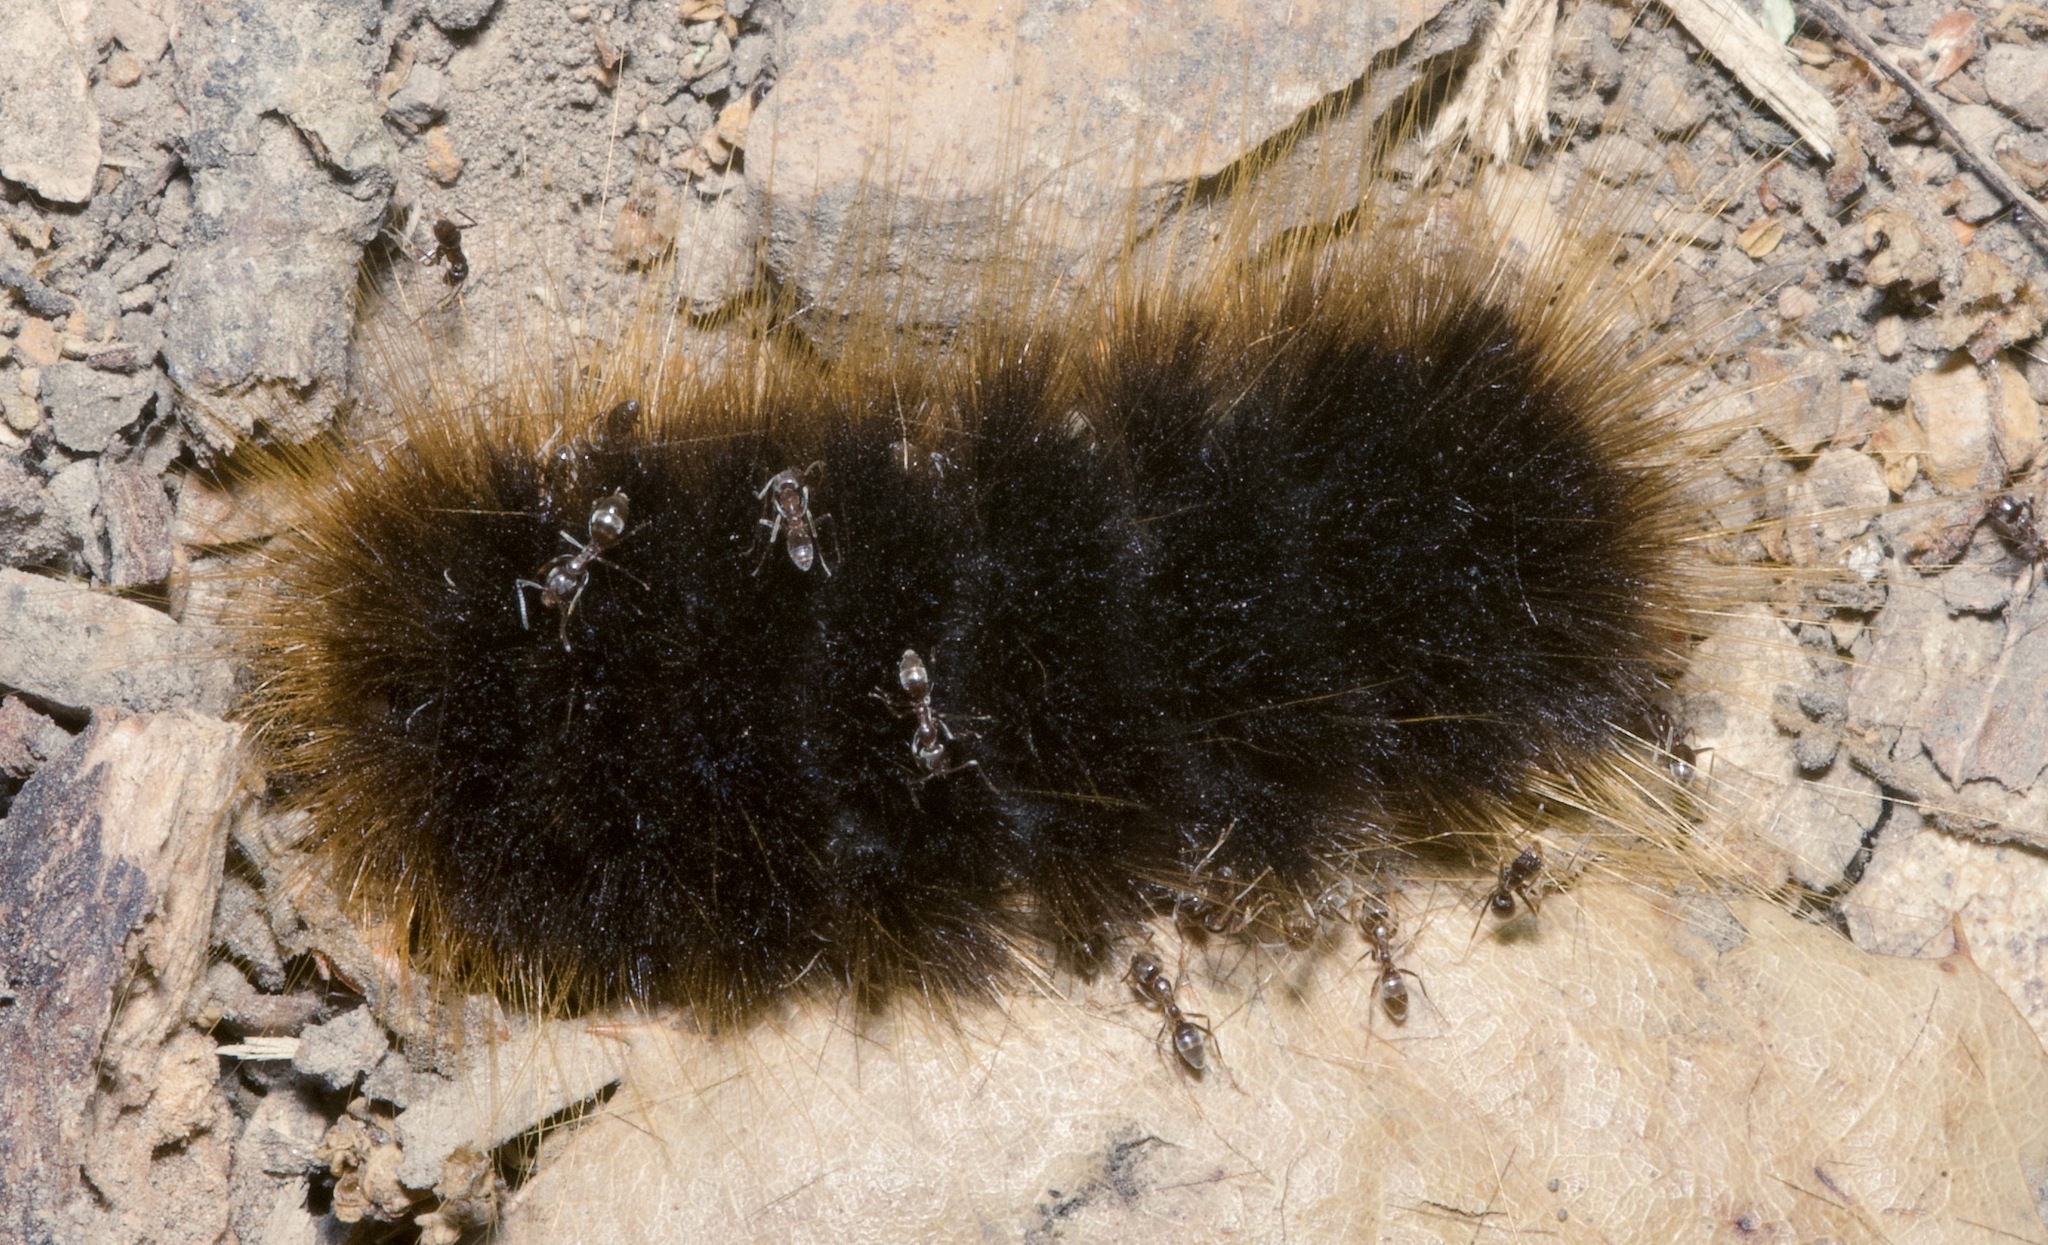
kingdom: Animalia
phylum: Arthropoda
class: Insecta
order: Lepidoptera
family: Erebidae
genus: Hemihyalea
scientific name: Hemihyalea edwardsii
